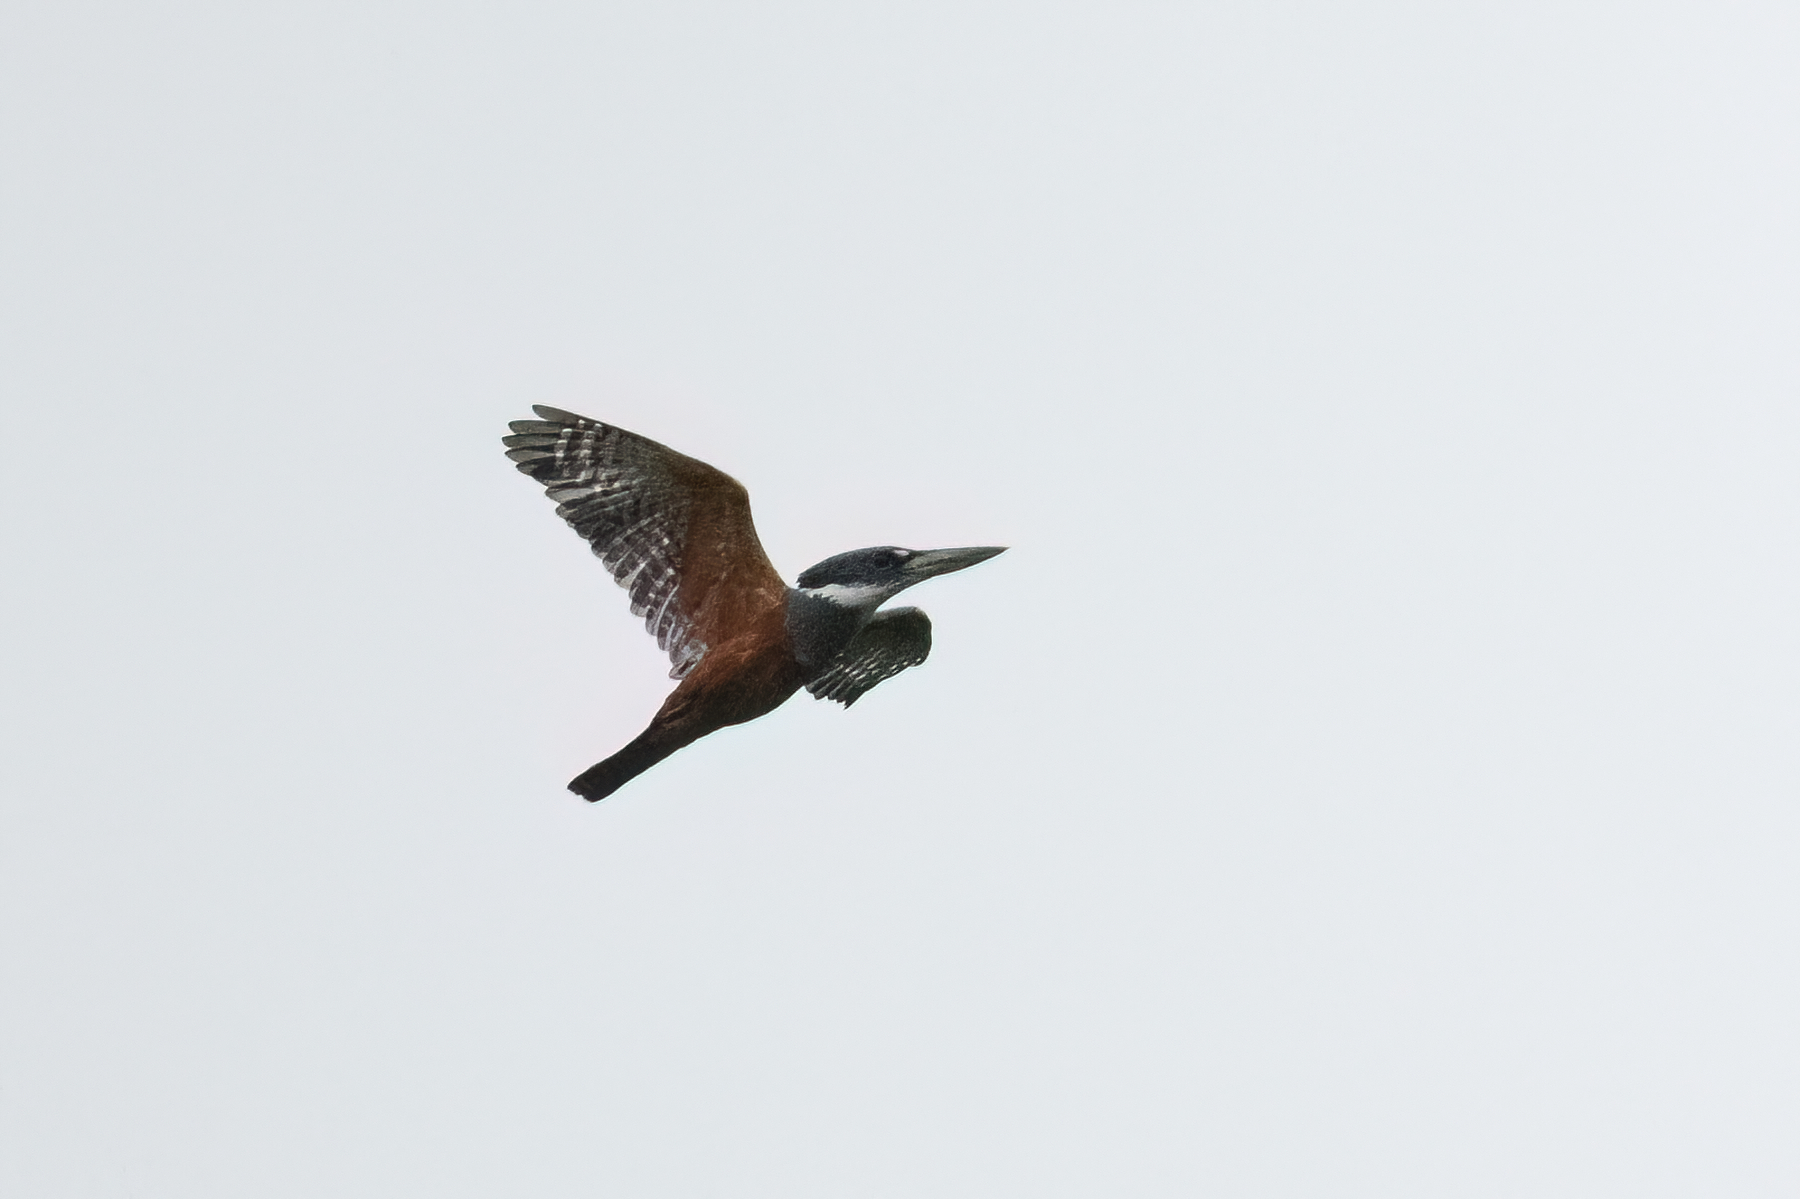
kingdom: Animalia
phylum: Chordata
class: Aves
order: Coraciiformes
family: Alcedinidae
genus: Megaceryle
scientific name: Megaceryle torquata
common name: Ringed kingfisher
